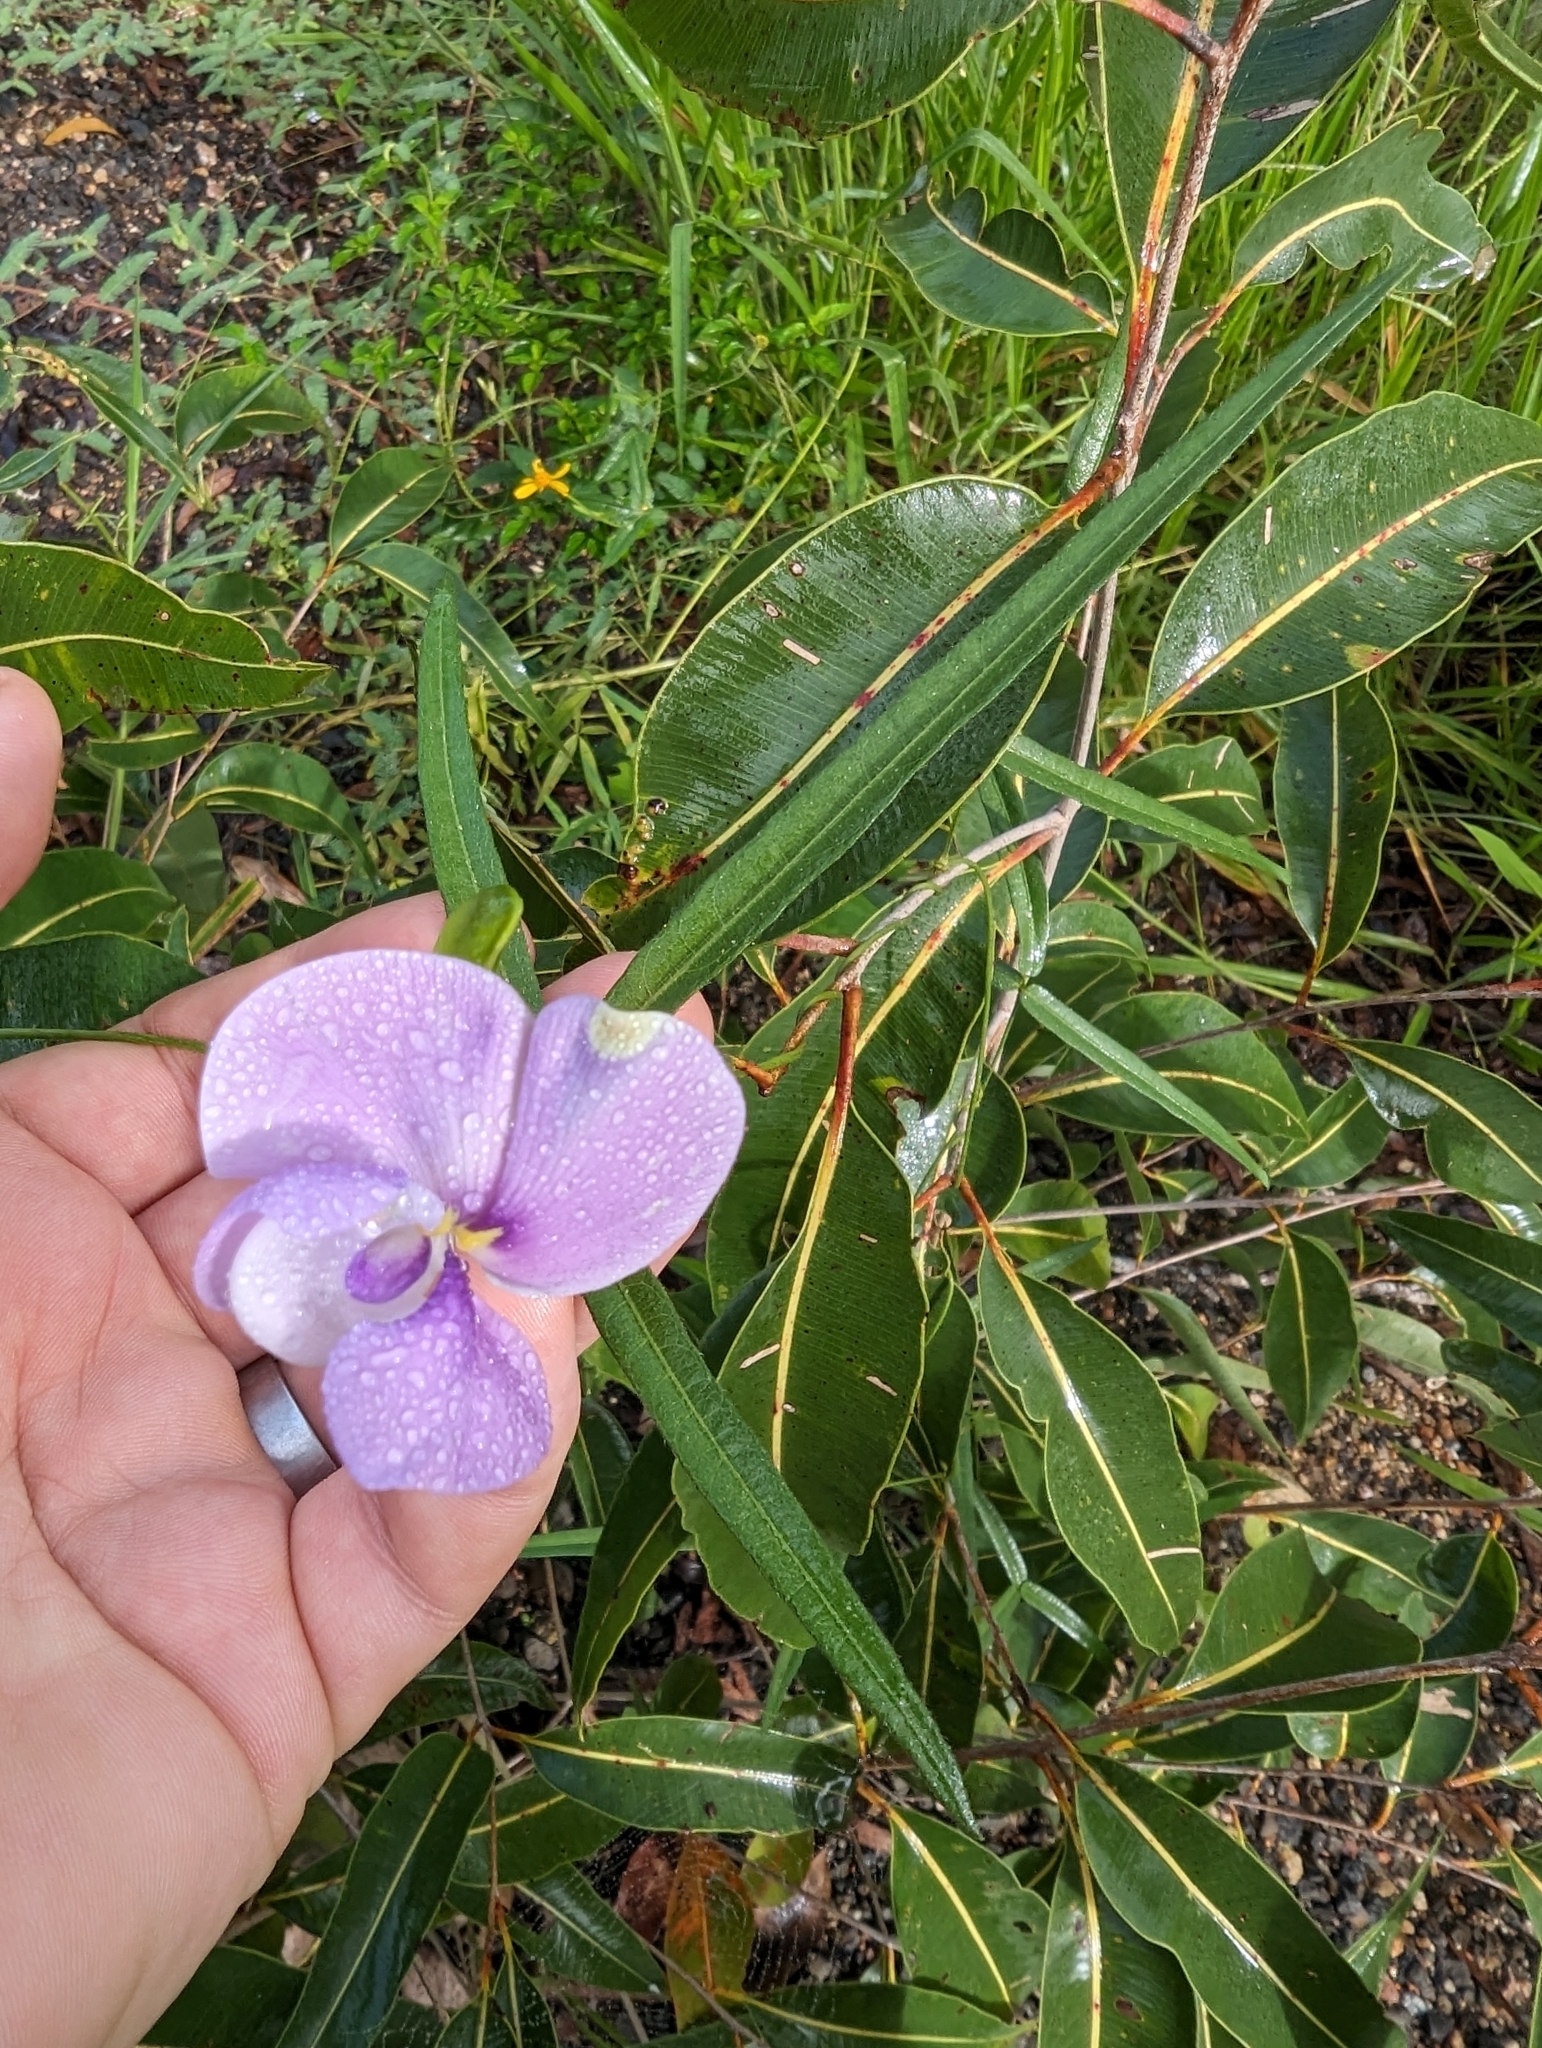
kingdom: Plantae
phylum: Tracheophyta
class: Magnoliopsida
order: Fabales
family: Fabaceae
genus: Vigna
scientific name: Vigna vexillata
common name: Zombi pea
